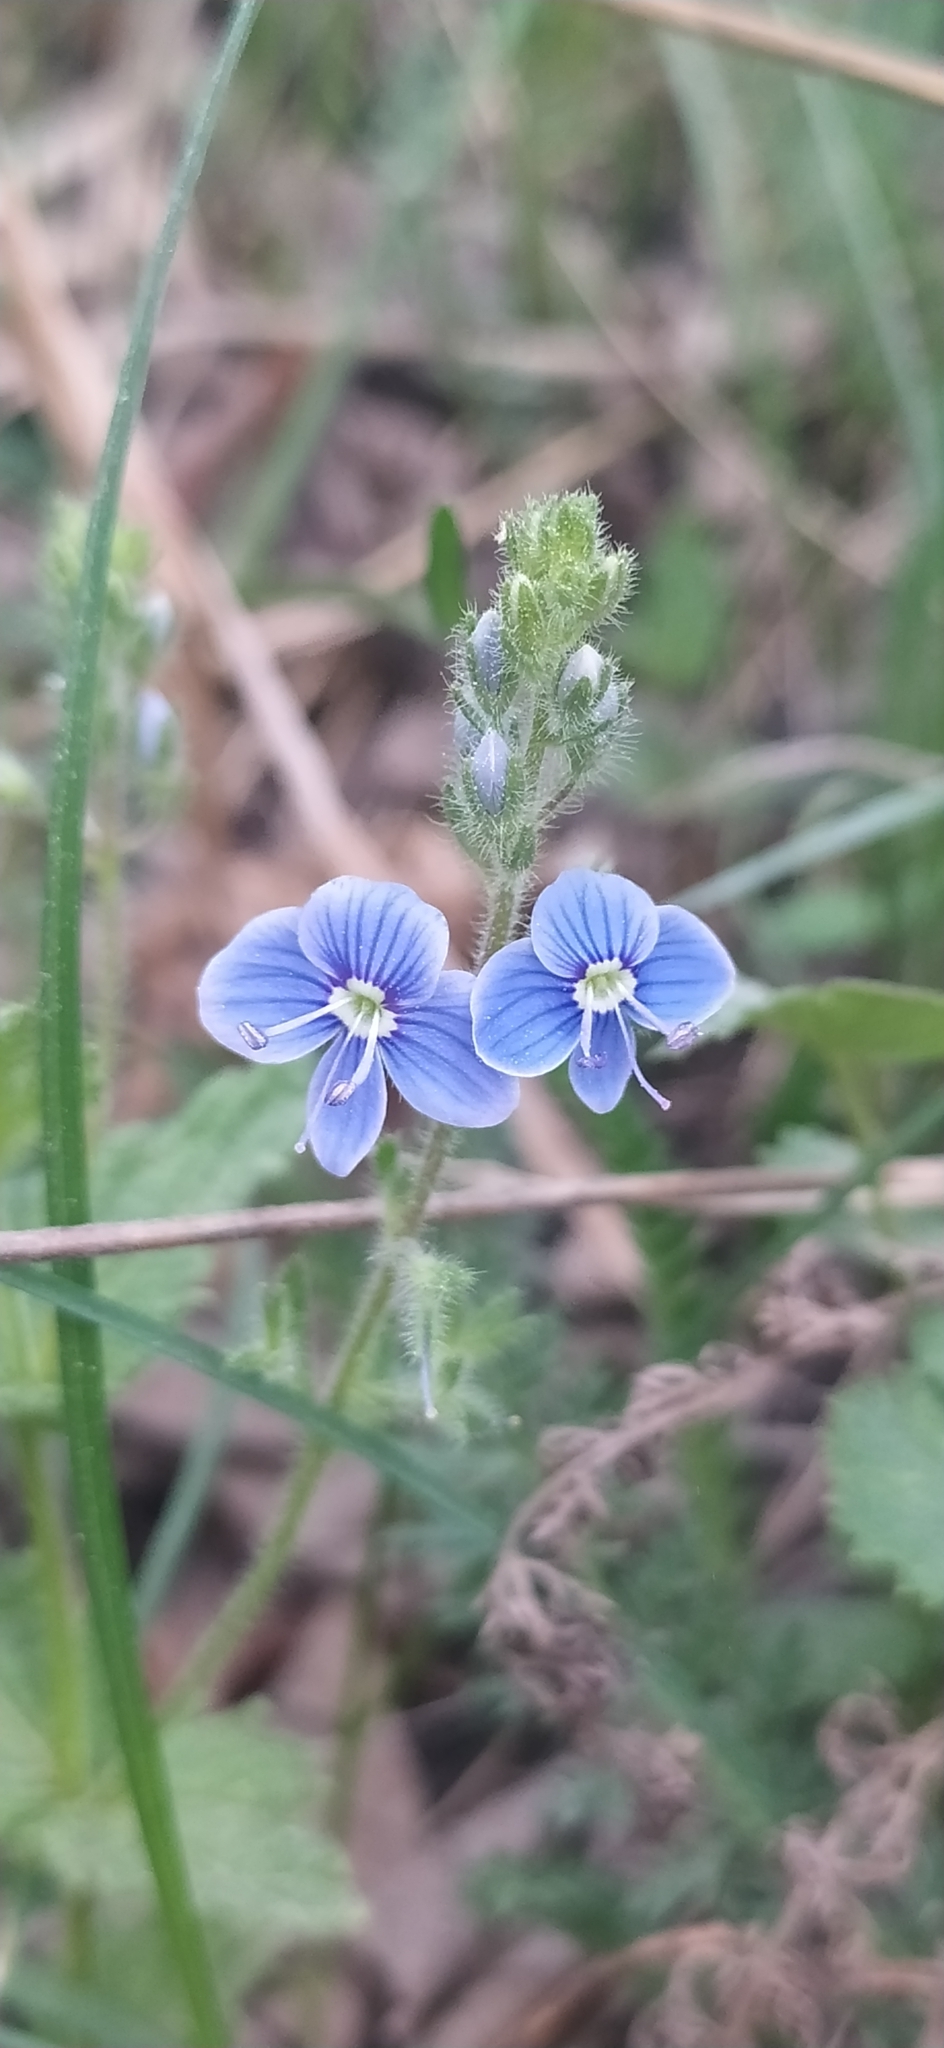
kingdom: Plantae
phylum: Tracheophyta
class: Magnoliopsida
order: Lamiales
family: Plantaginaceae
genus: Veronica
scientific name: Veronica chamaedrys
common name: Germander speedwell
